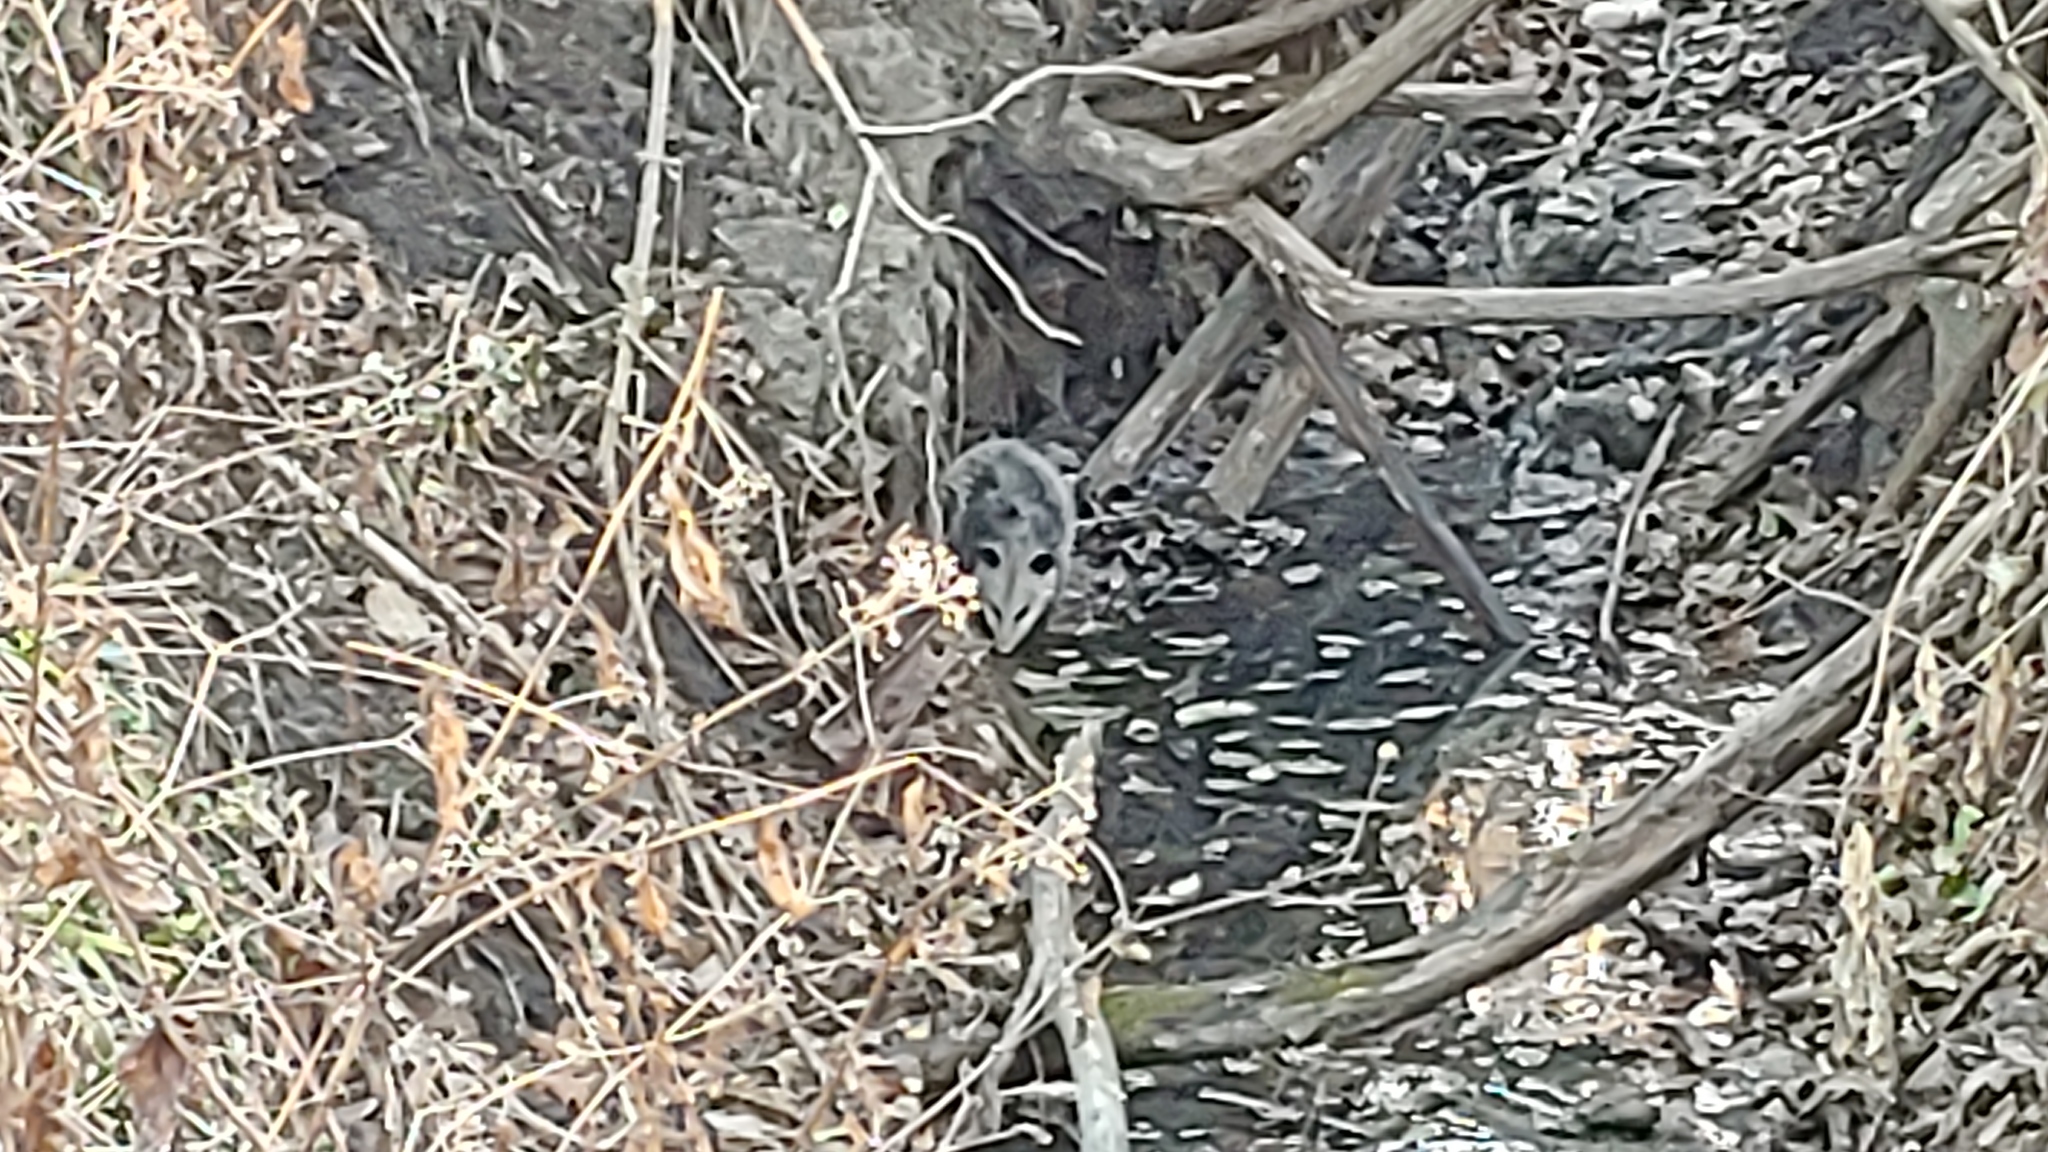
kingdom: Animalia
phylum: Chordata
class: Mammalia
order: Didelphimorphia
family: Didelphidae
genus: Didelphis
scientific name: Didelphis virginiana
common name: Virginia opossum
